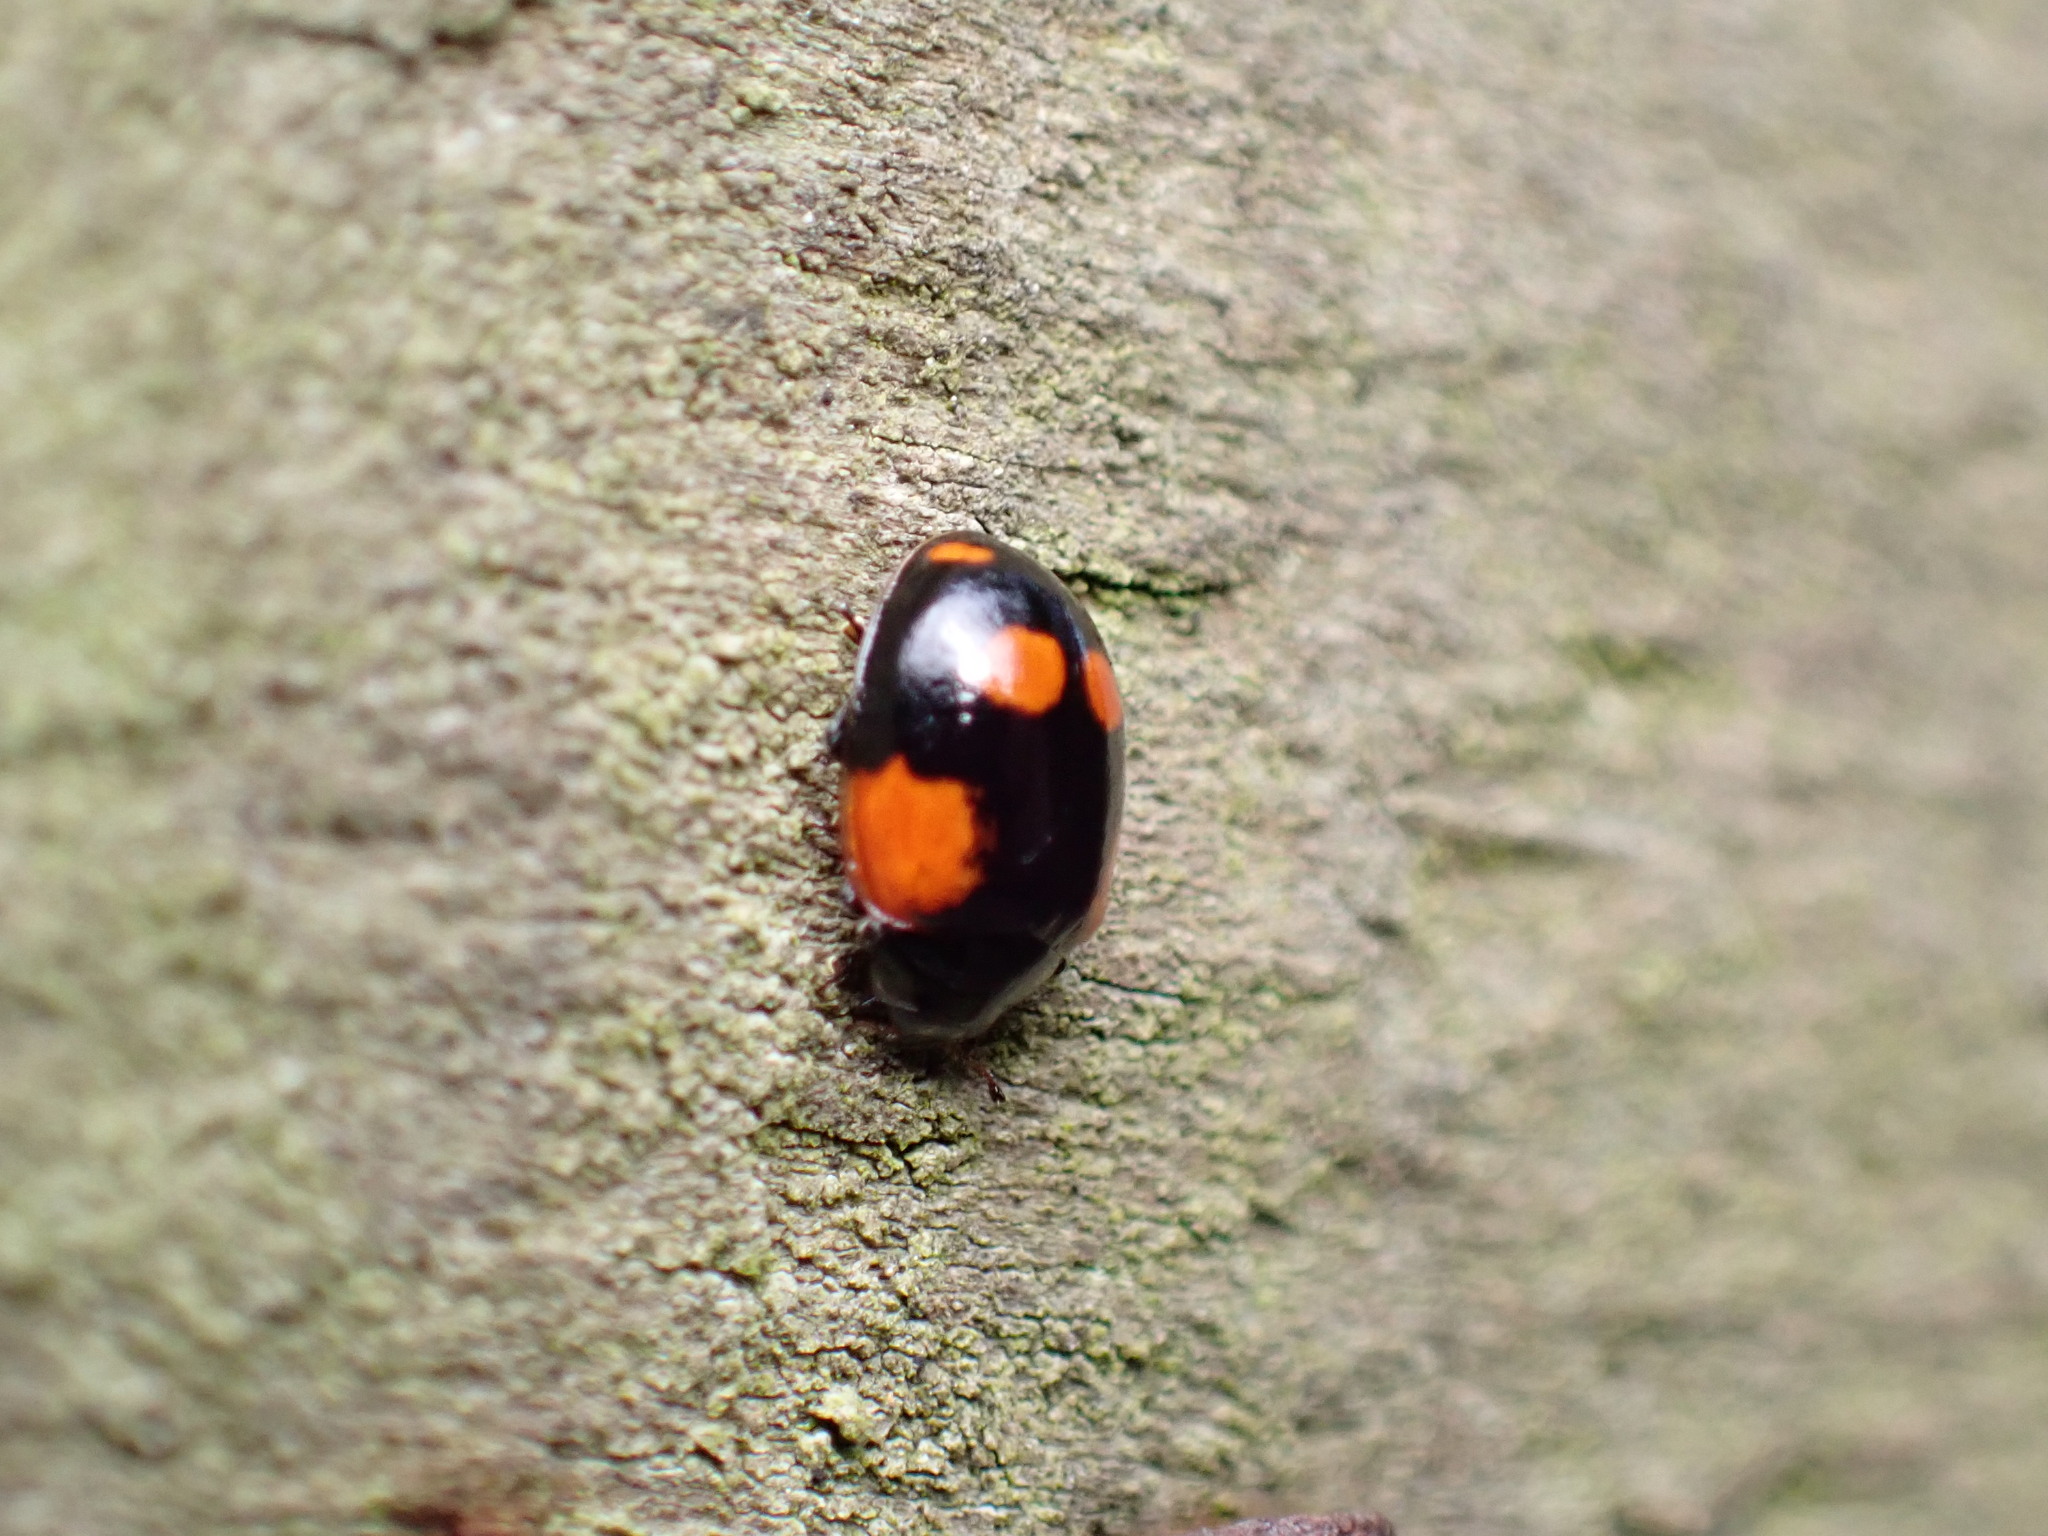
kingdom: Animalia
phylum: Arthropoda
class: Insecta
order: Coleoptera
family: Coccinellidae
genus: Adalia
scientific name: Adalia bipunctata
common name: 2-spot ladybird
